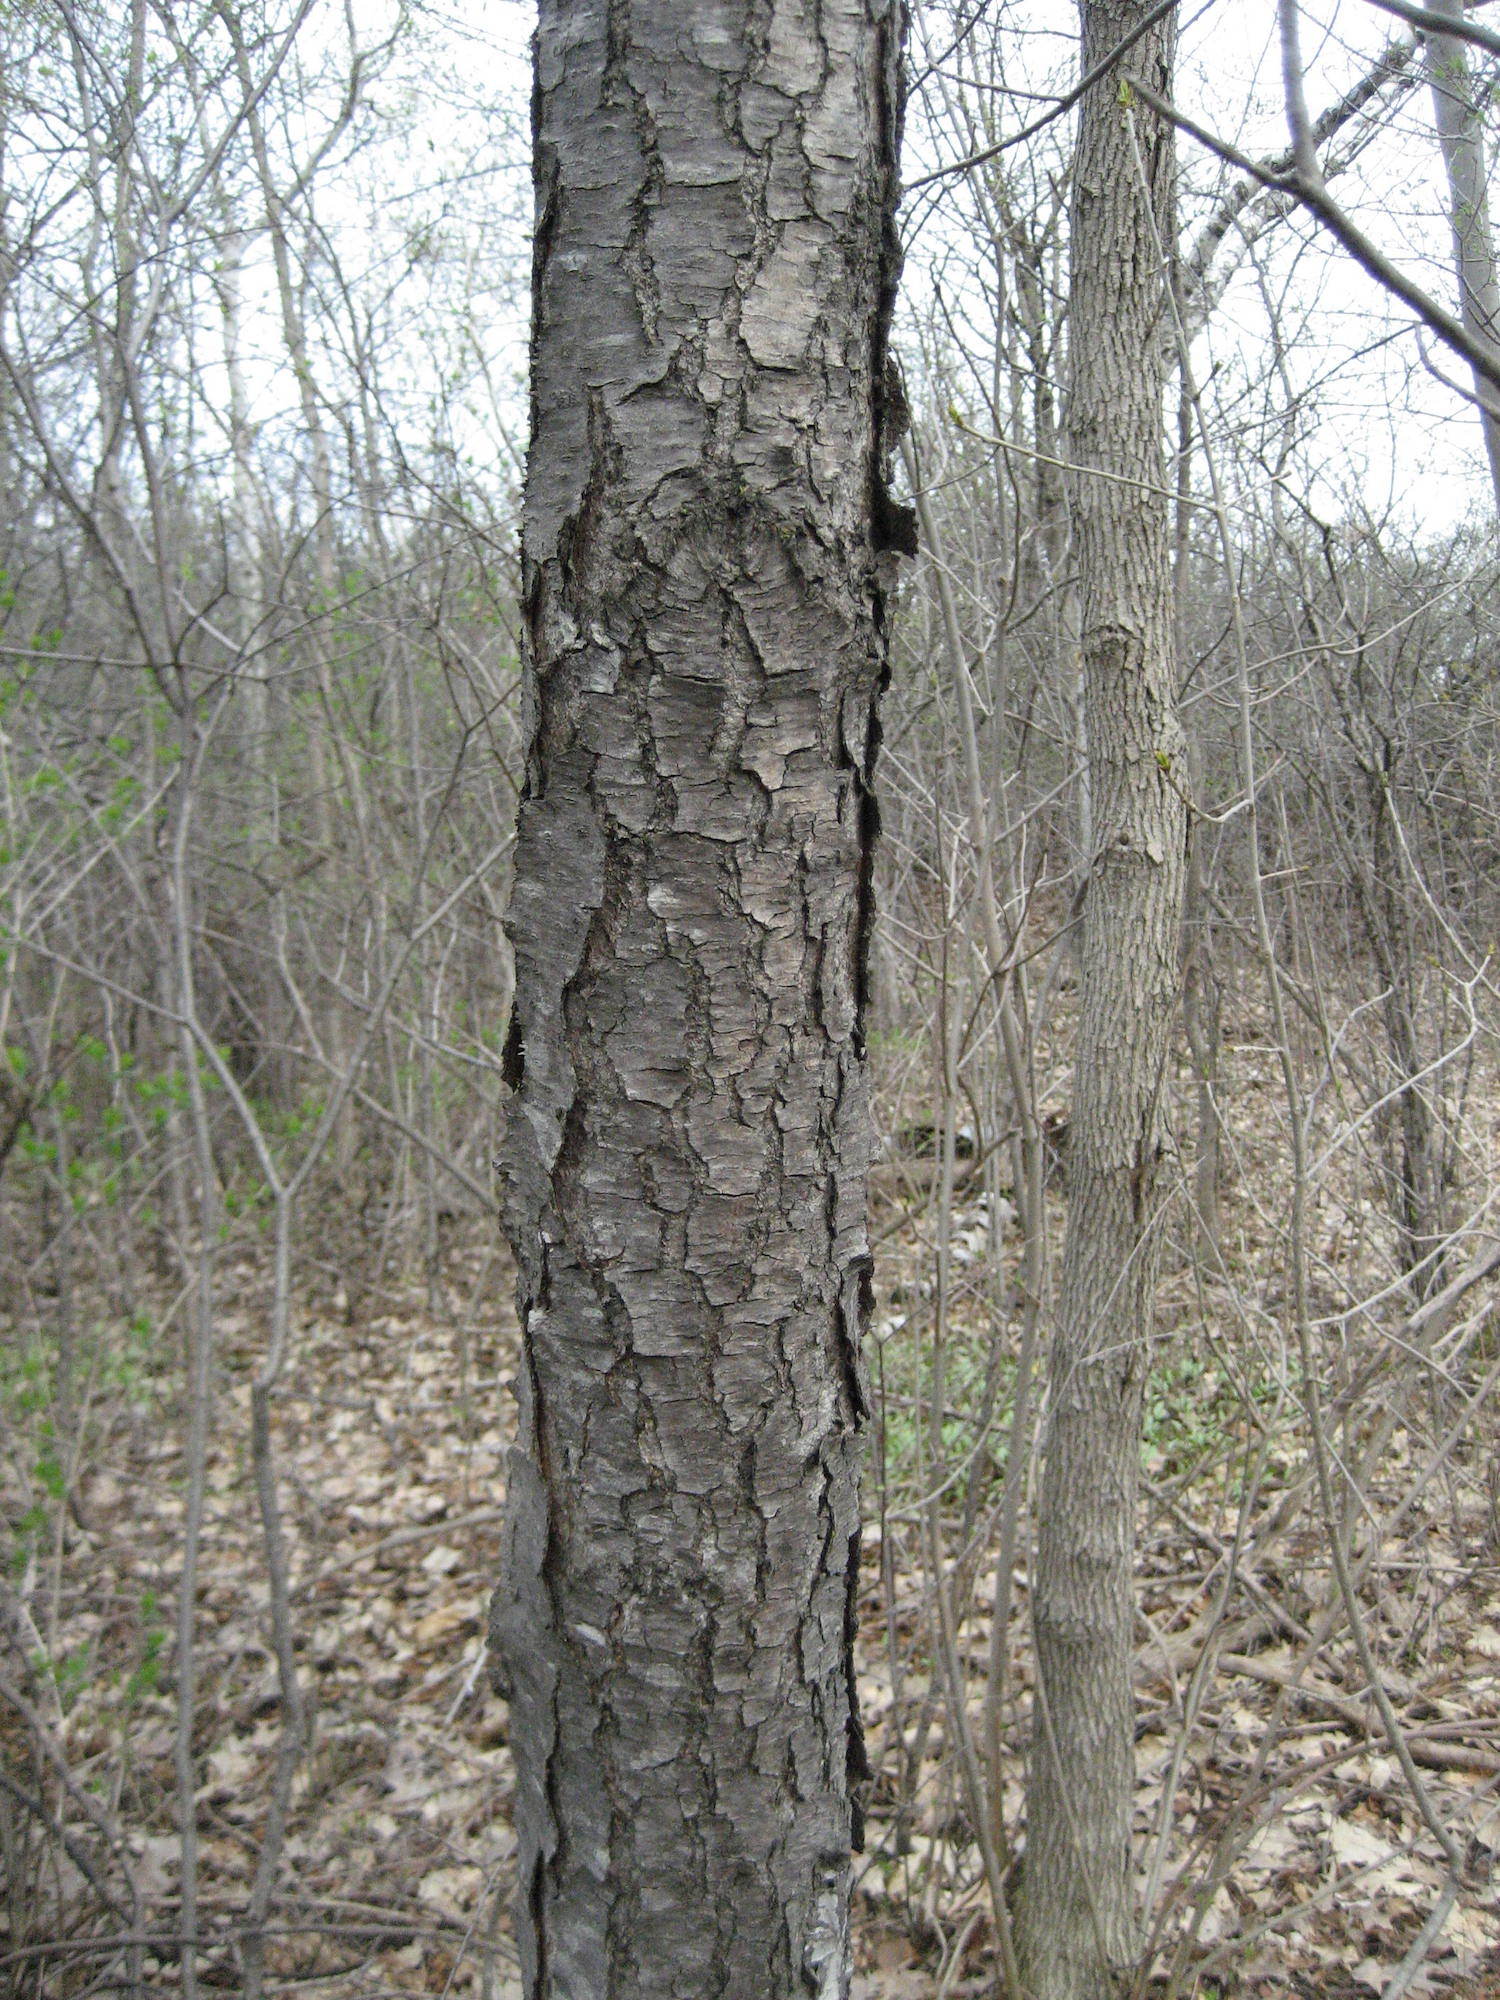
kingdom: Plantae
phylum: Tracheophyta
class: Magnoliopsida
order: Rosales
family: Rosaceae
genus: Prunus
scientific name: Prunus serotina
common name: Black cherry
